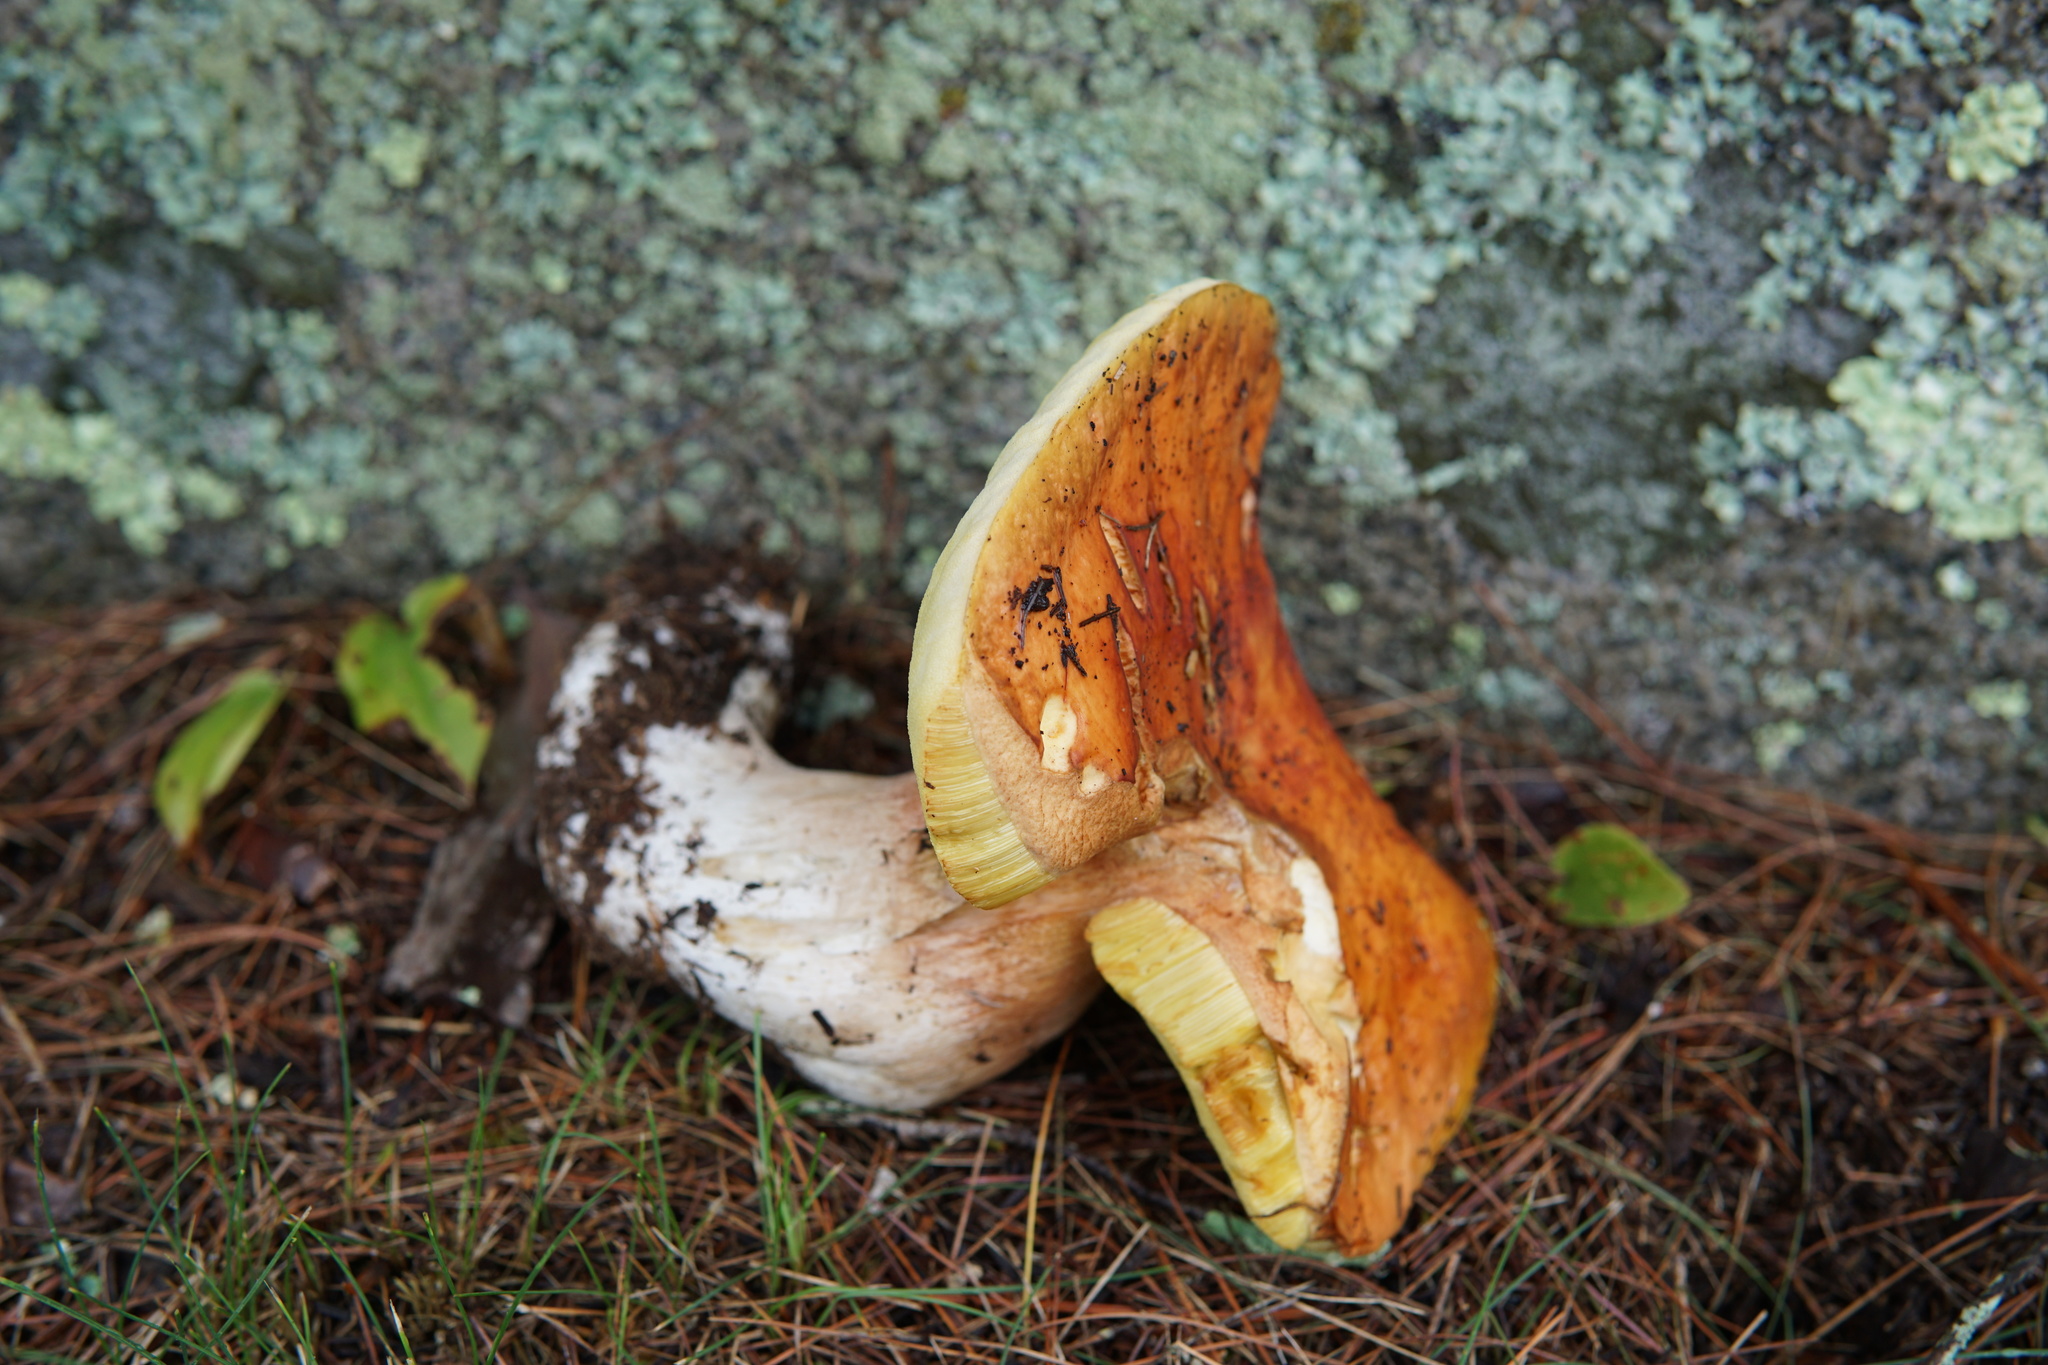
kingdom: Fungi
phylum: Basidiomycota
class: Agaricomycetes
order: Boletales
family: Boletaceae
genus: Boletus
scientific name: Boletus chippewaensis
